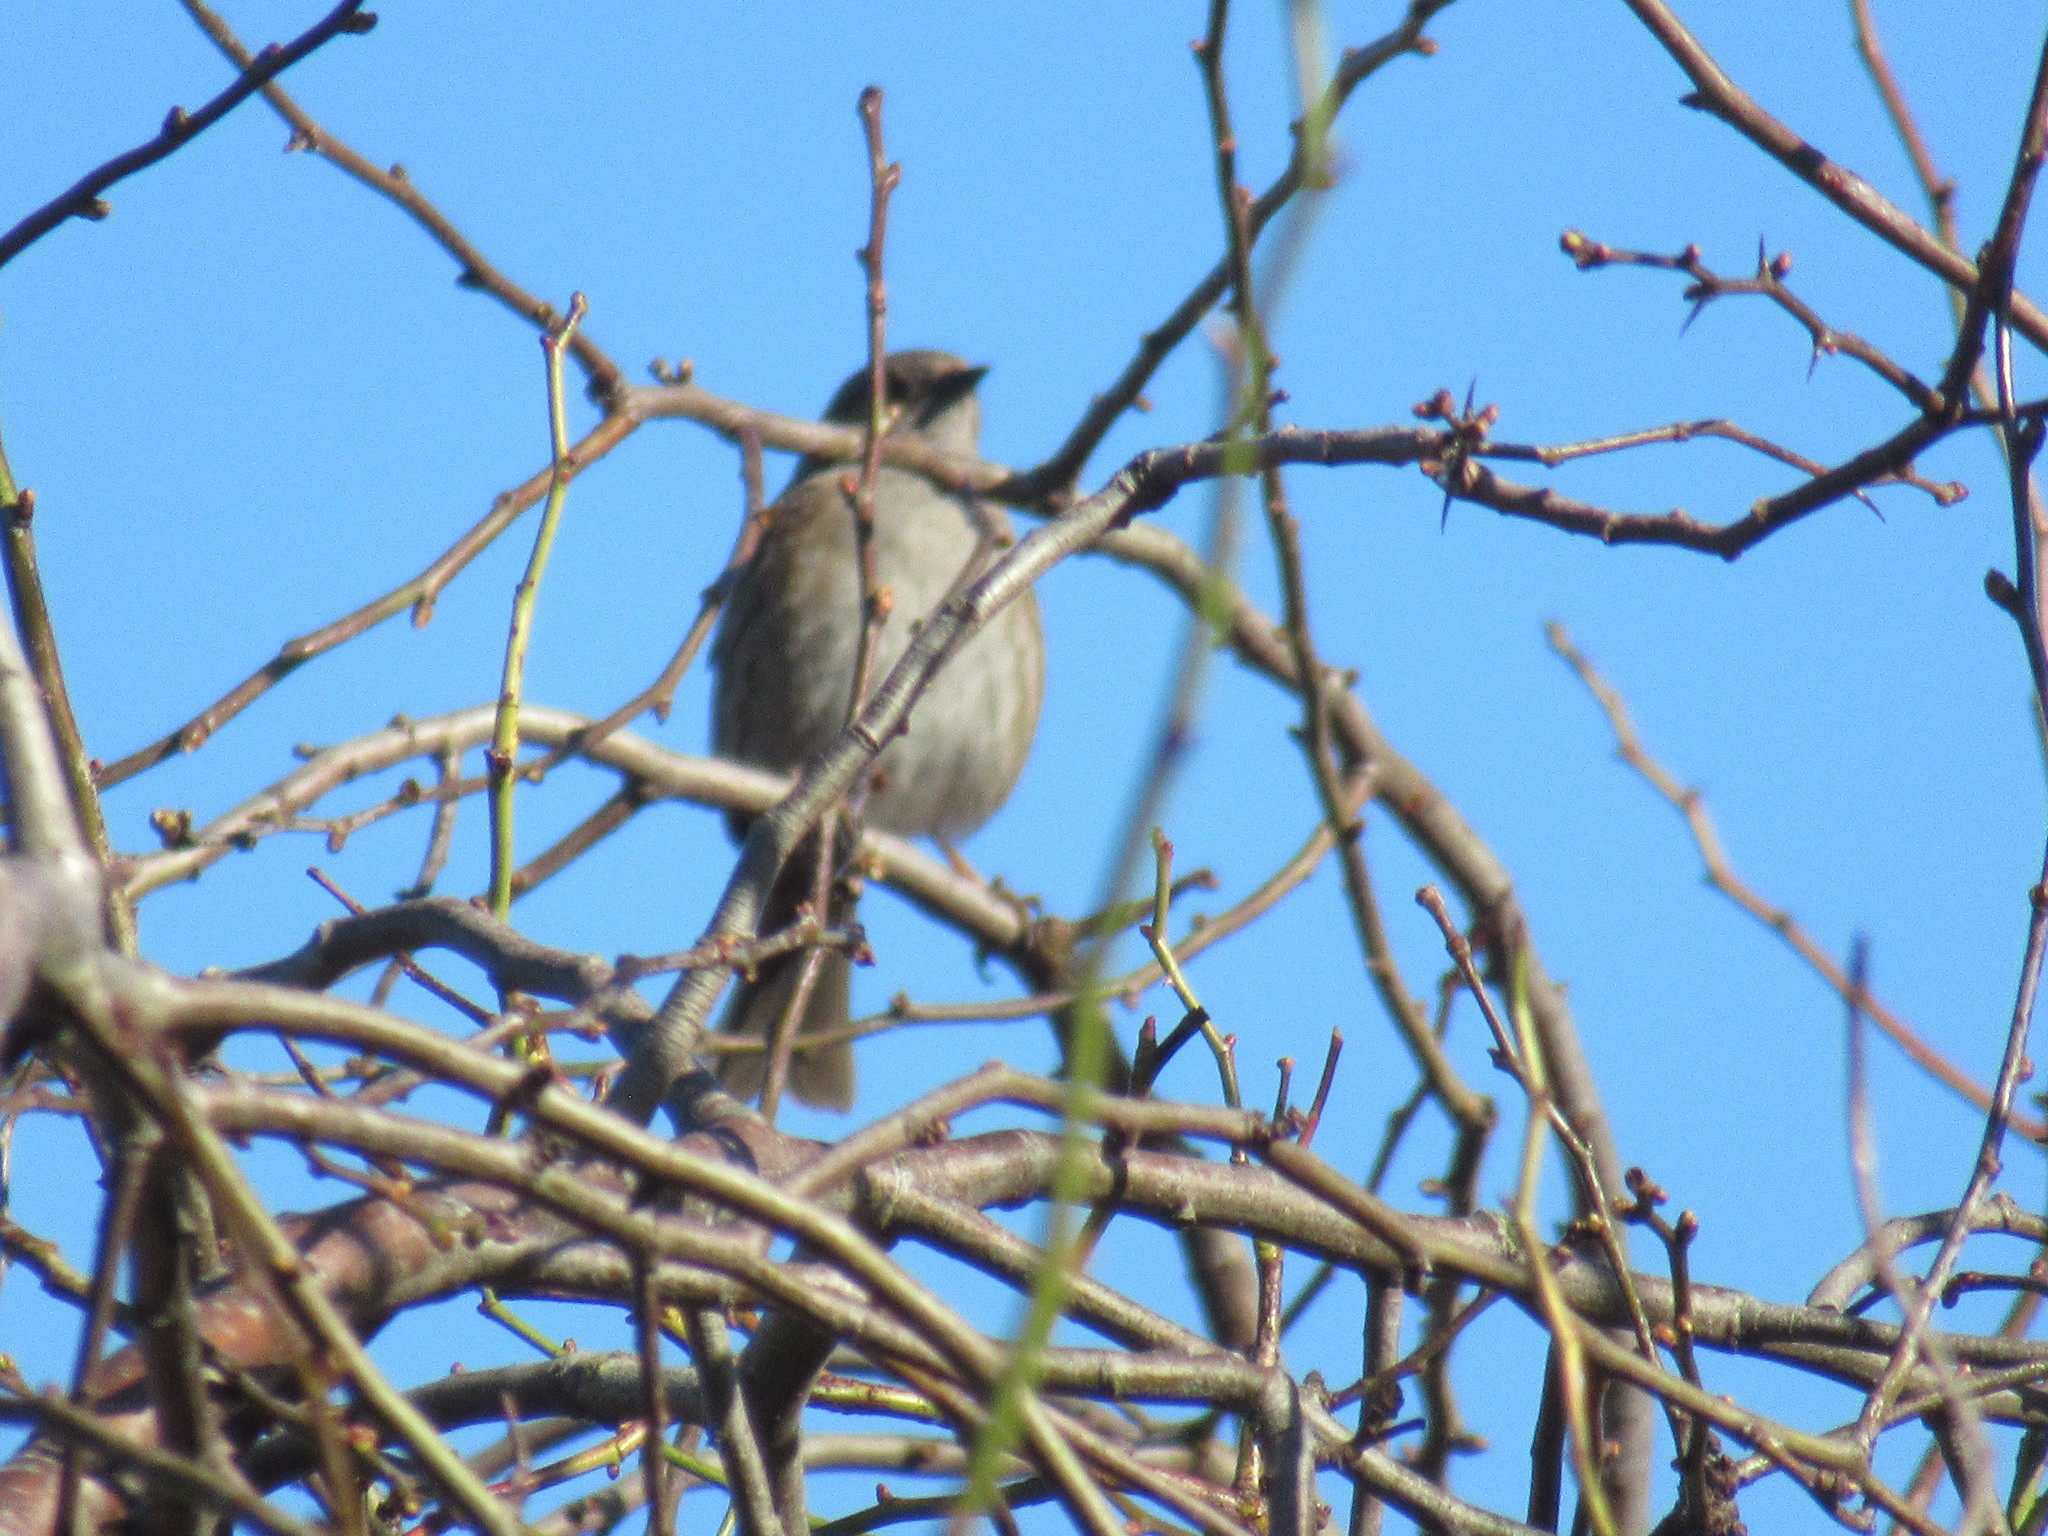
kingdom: Animalia
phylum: Chordata
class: Aves
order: Passeriformes
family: Prunellidae
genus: Prunella
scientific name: Prunella modularis
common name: Dunnock
